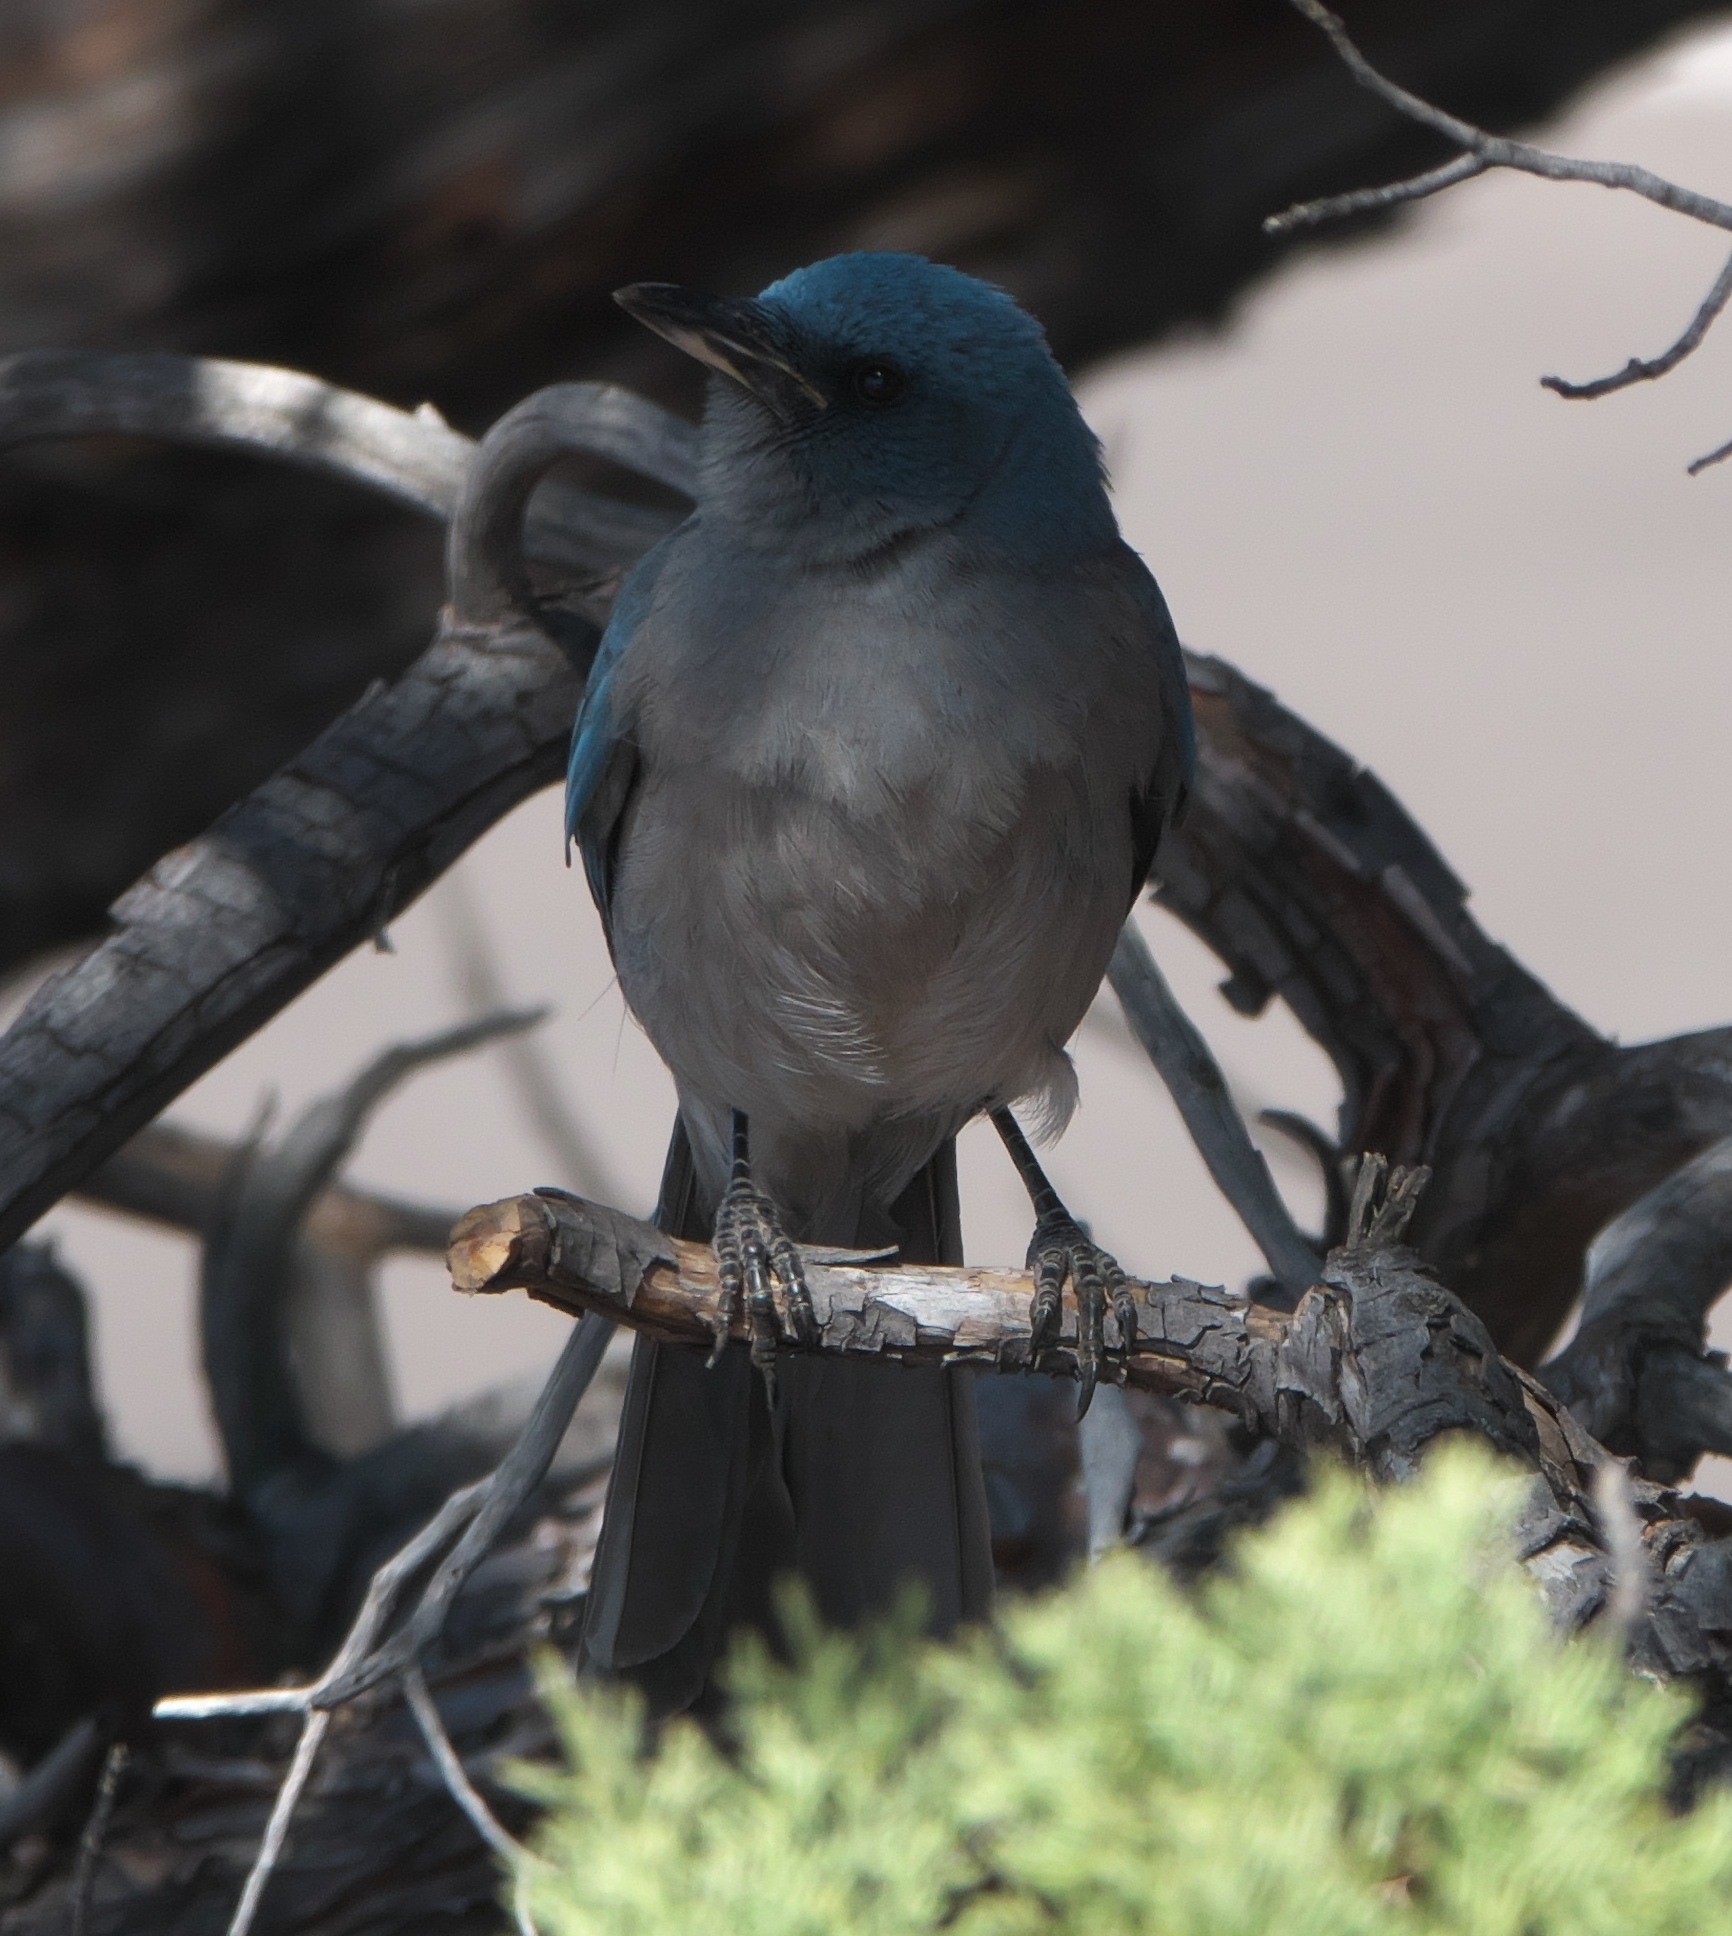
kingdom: Animalia
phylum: Chordata
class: Aves
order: Passeriformes
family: Corvidae
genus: Aphelocoma
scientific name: Aphelocoma wollweberi
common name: Mexican jay
